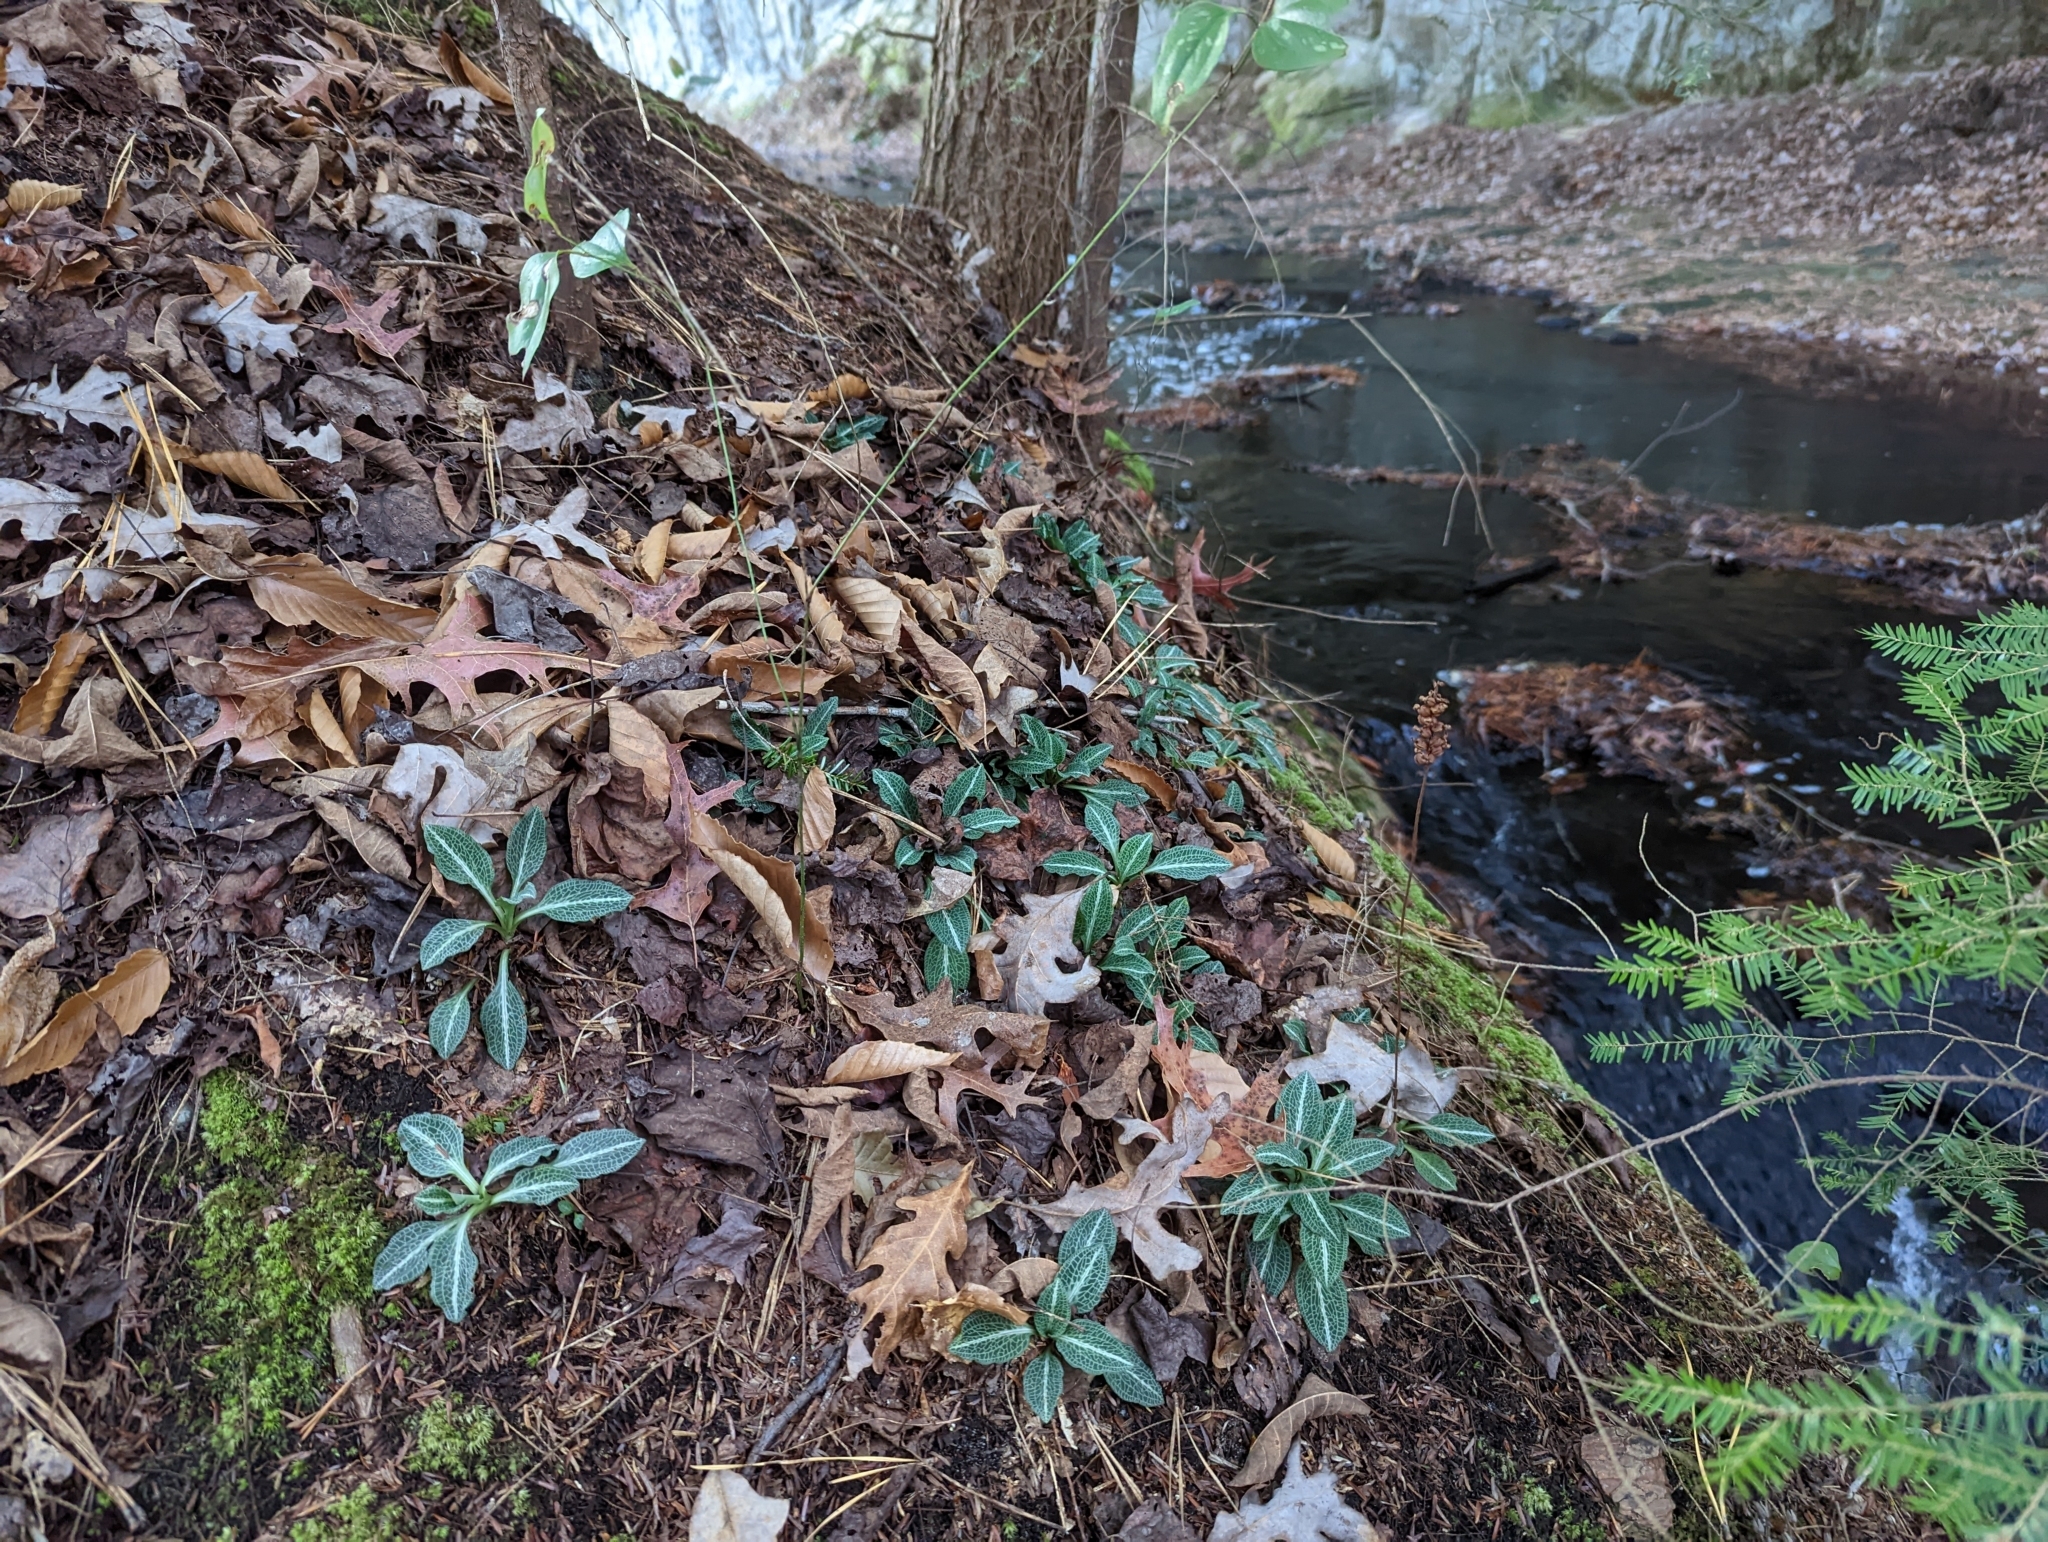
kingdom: Plantae
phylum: Tracheophyta
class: Liliopsida
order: Asparagales
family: Orchidaceae
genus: Goodyera
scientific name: Goodyera pubescens
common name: Downy rattlesnake-plantain
